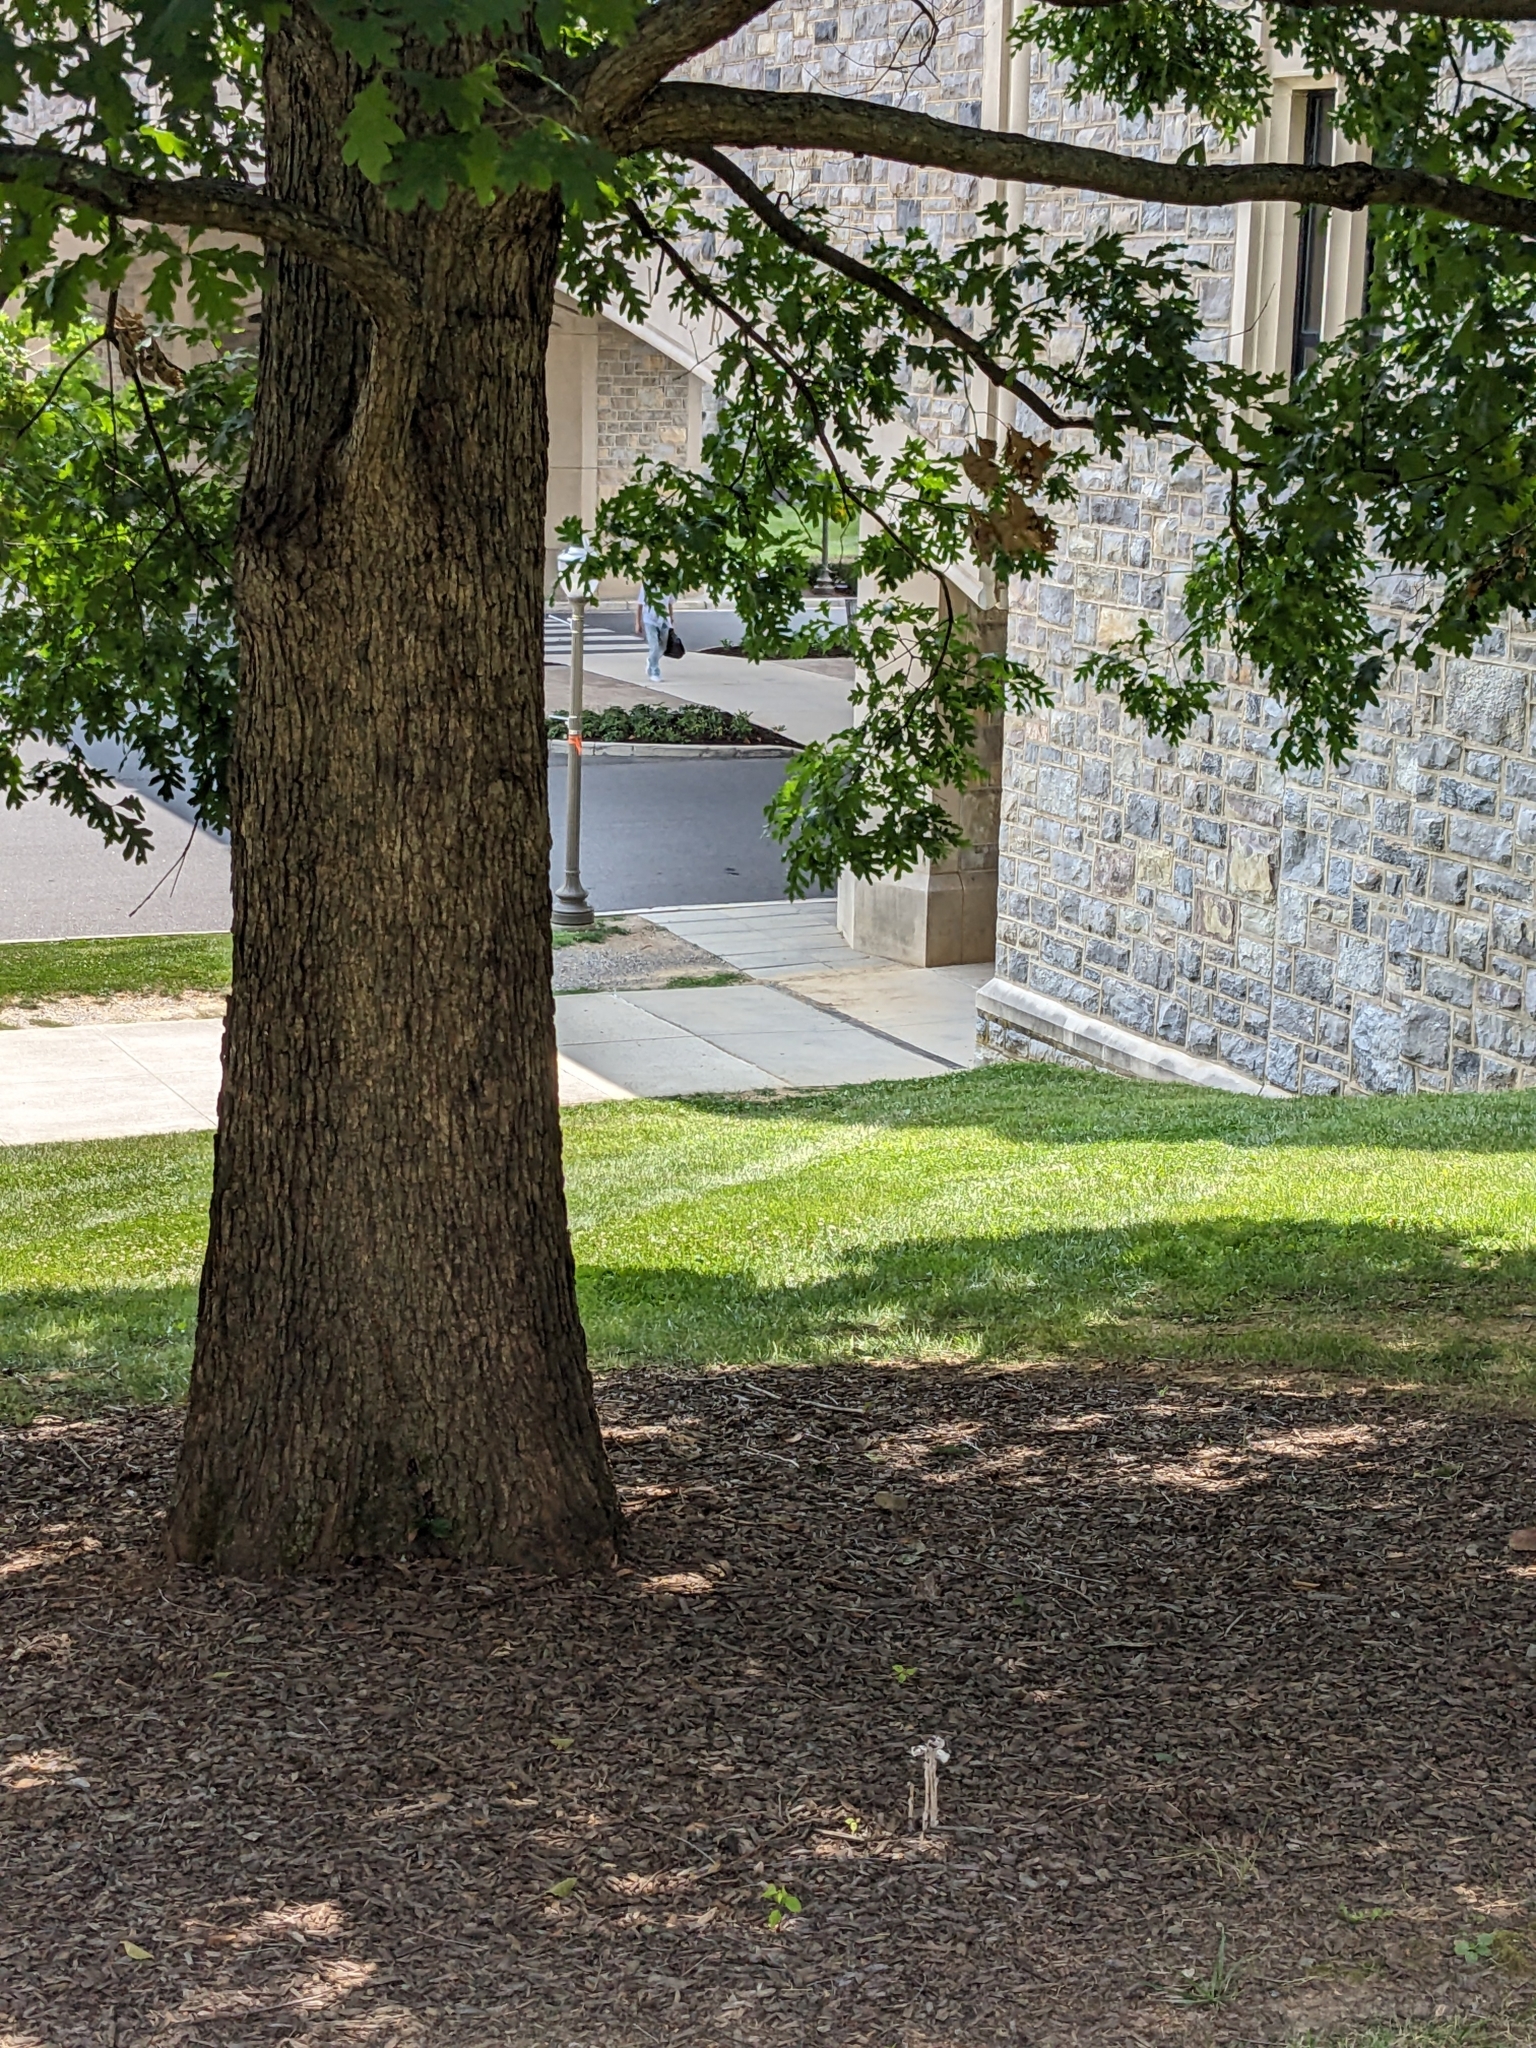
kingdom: Plantae
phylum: Tracheophyta
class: Magnoliopsida
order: Ericales
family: Ericaceae
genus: Monotropa
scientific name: Monotropa uniflora
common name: Convulsion root
